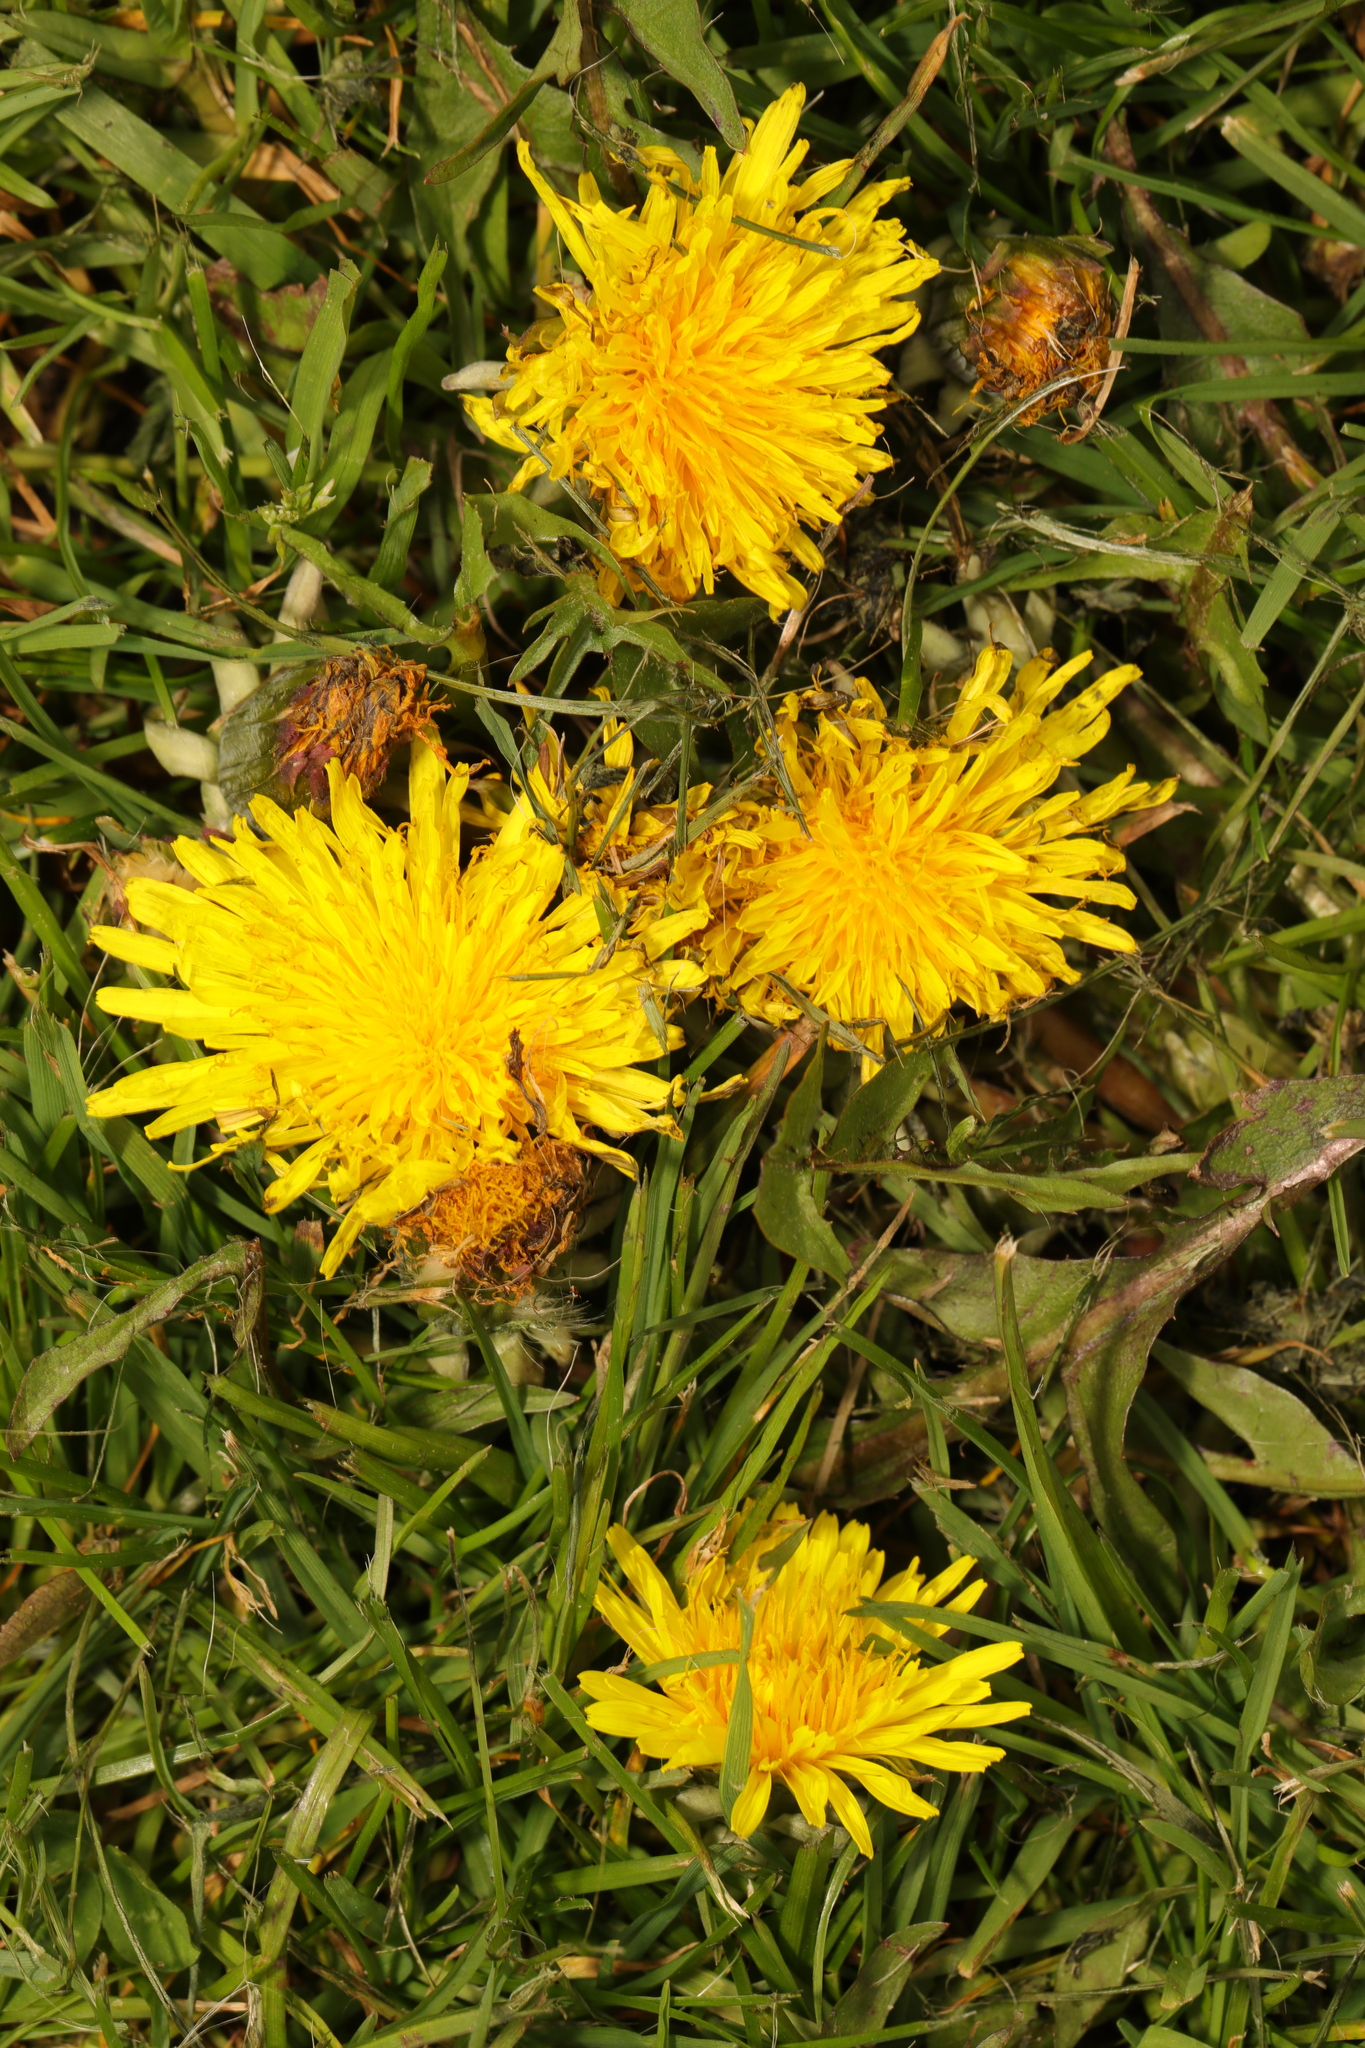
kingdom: Plantae
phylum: Tracheophyta
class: Magnoliopsida
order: Asterales
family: Asteraceae
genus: Taraxacum
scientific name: Taraxacum officinale
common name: Common dandelion
